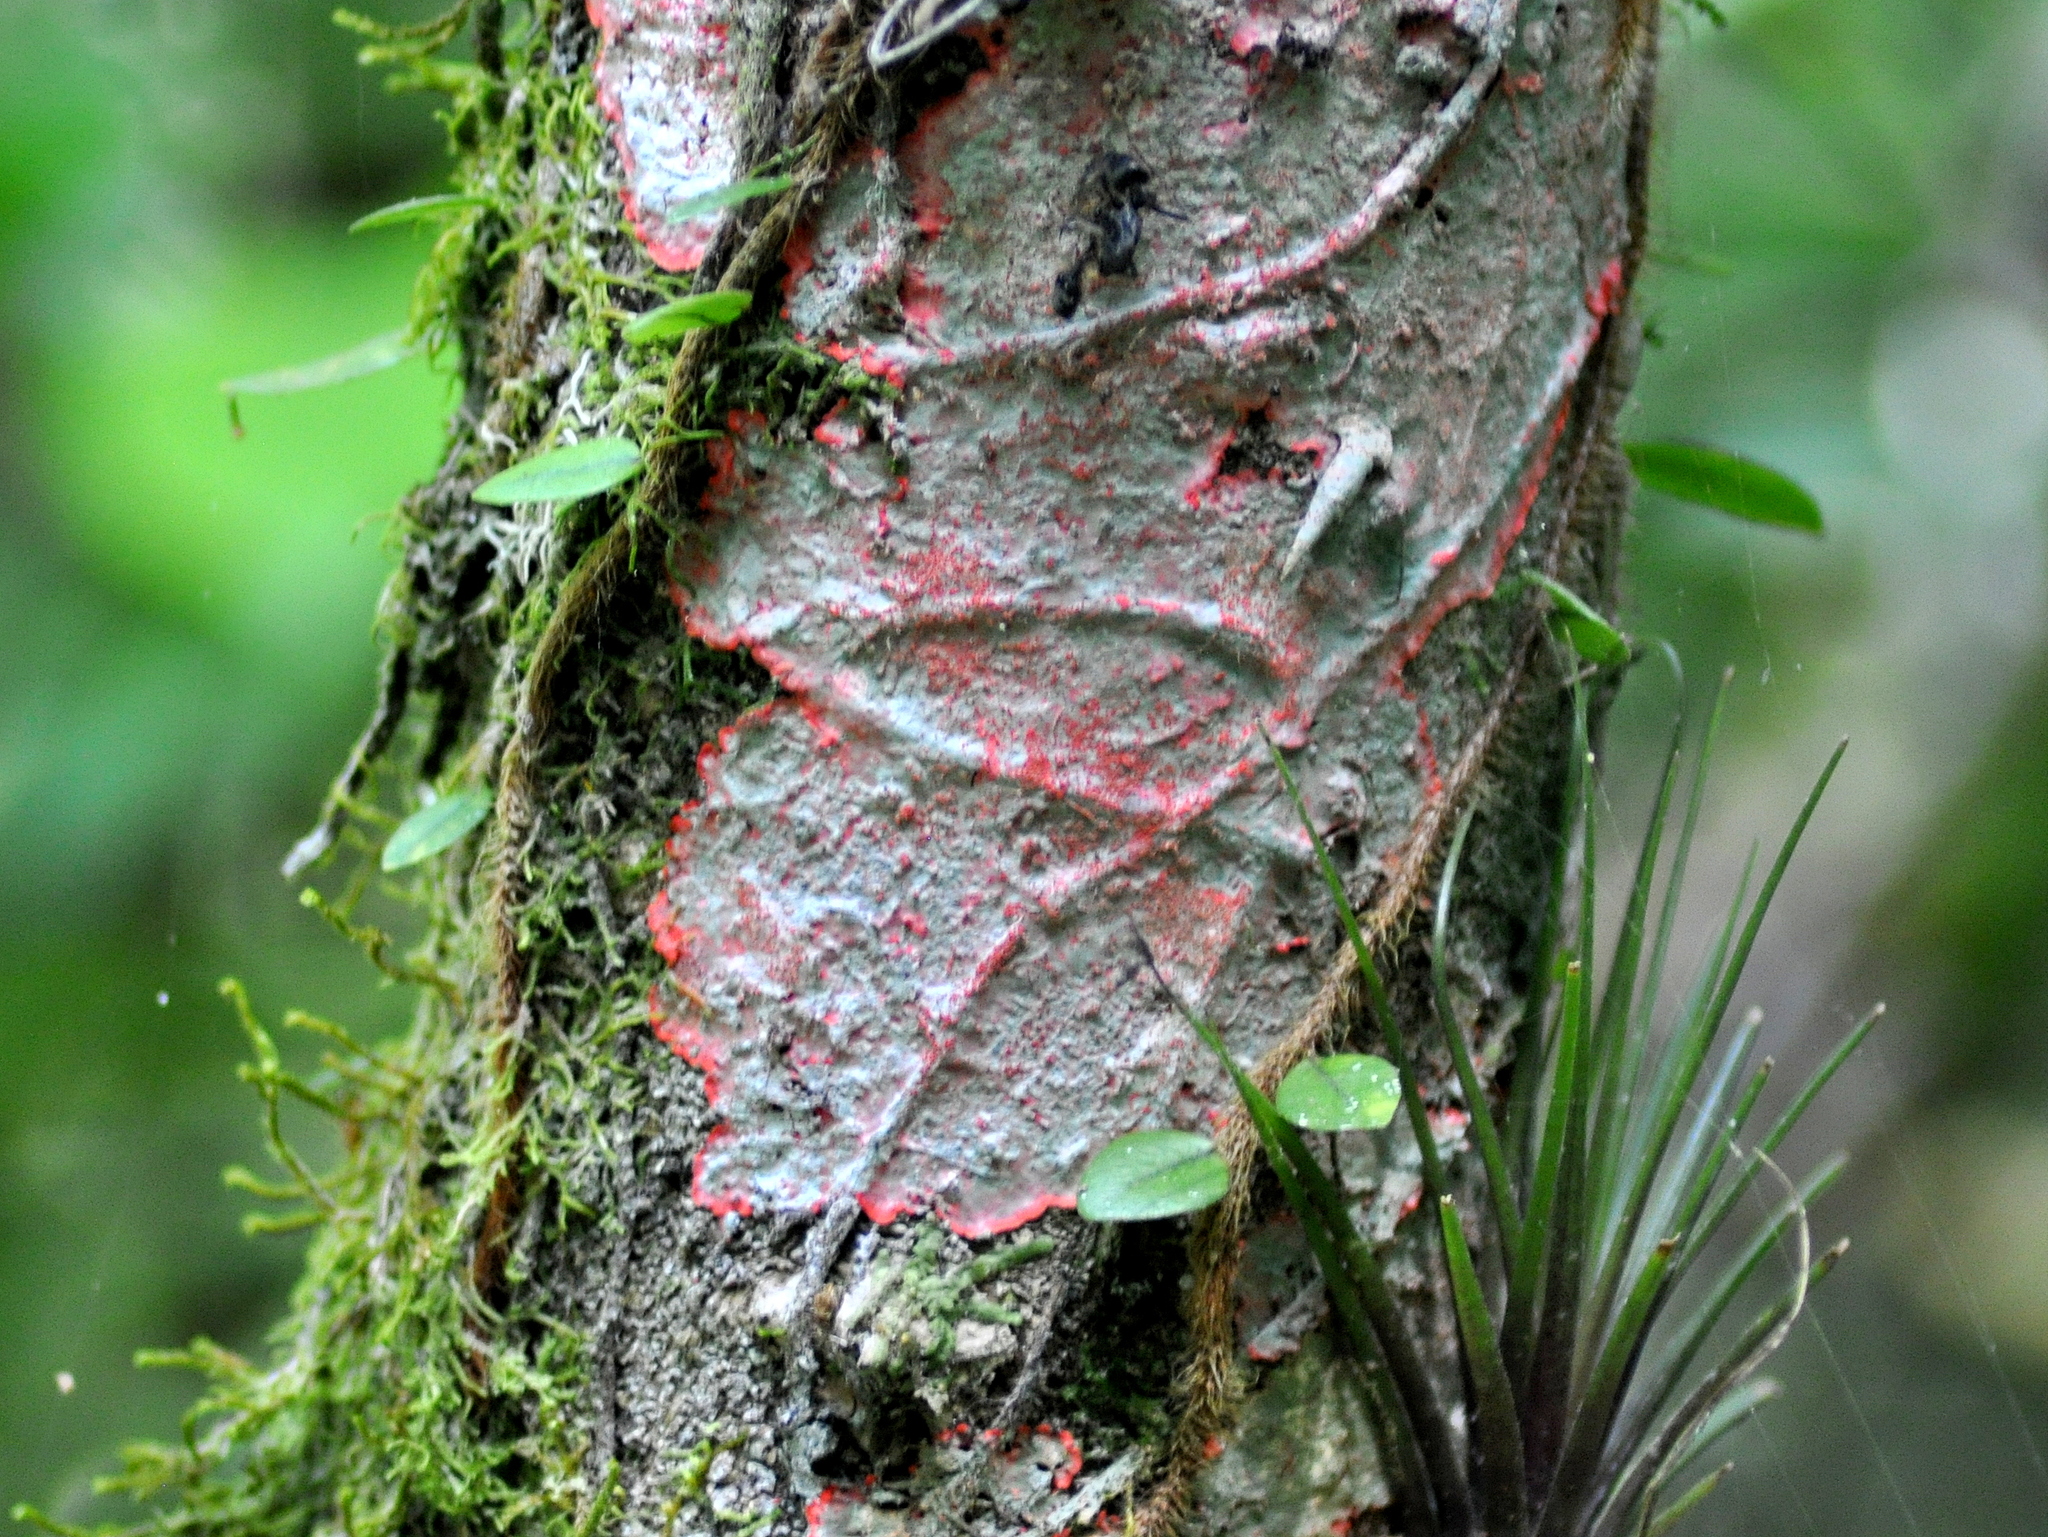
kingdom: Fungi
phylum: Ascomycota
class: Arthoniomycetes
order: Arthoniales
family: Arthoniaceae
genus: Herpothallon
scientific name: Herpothallon rubrocinctum
